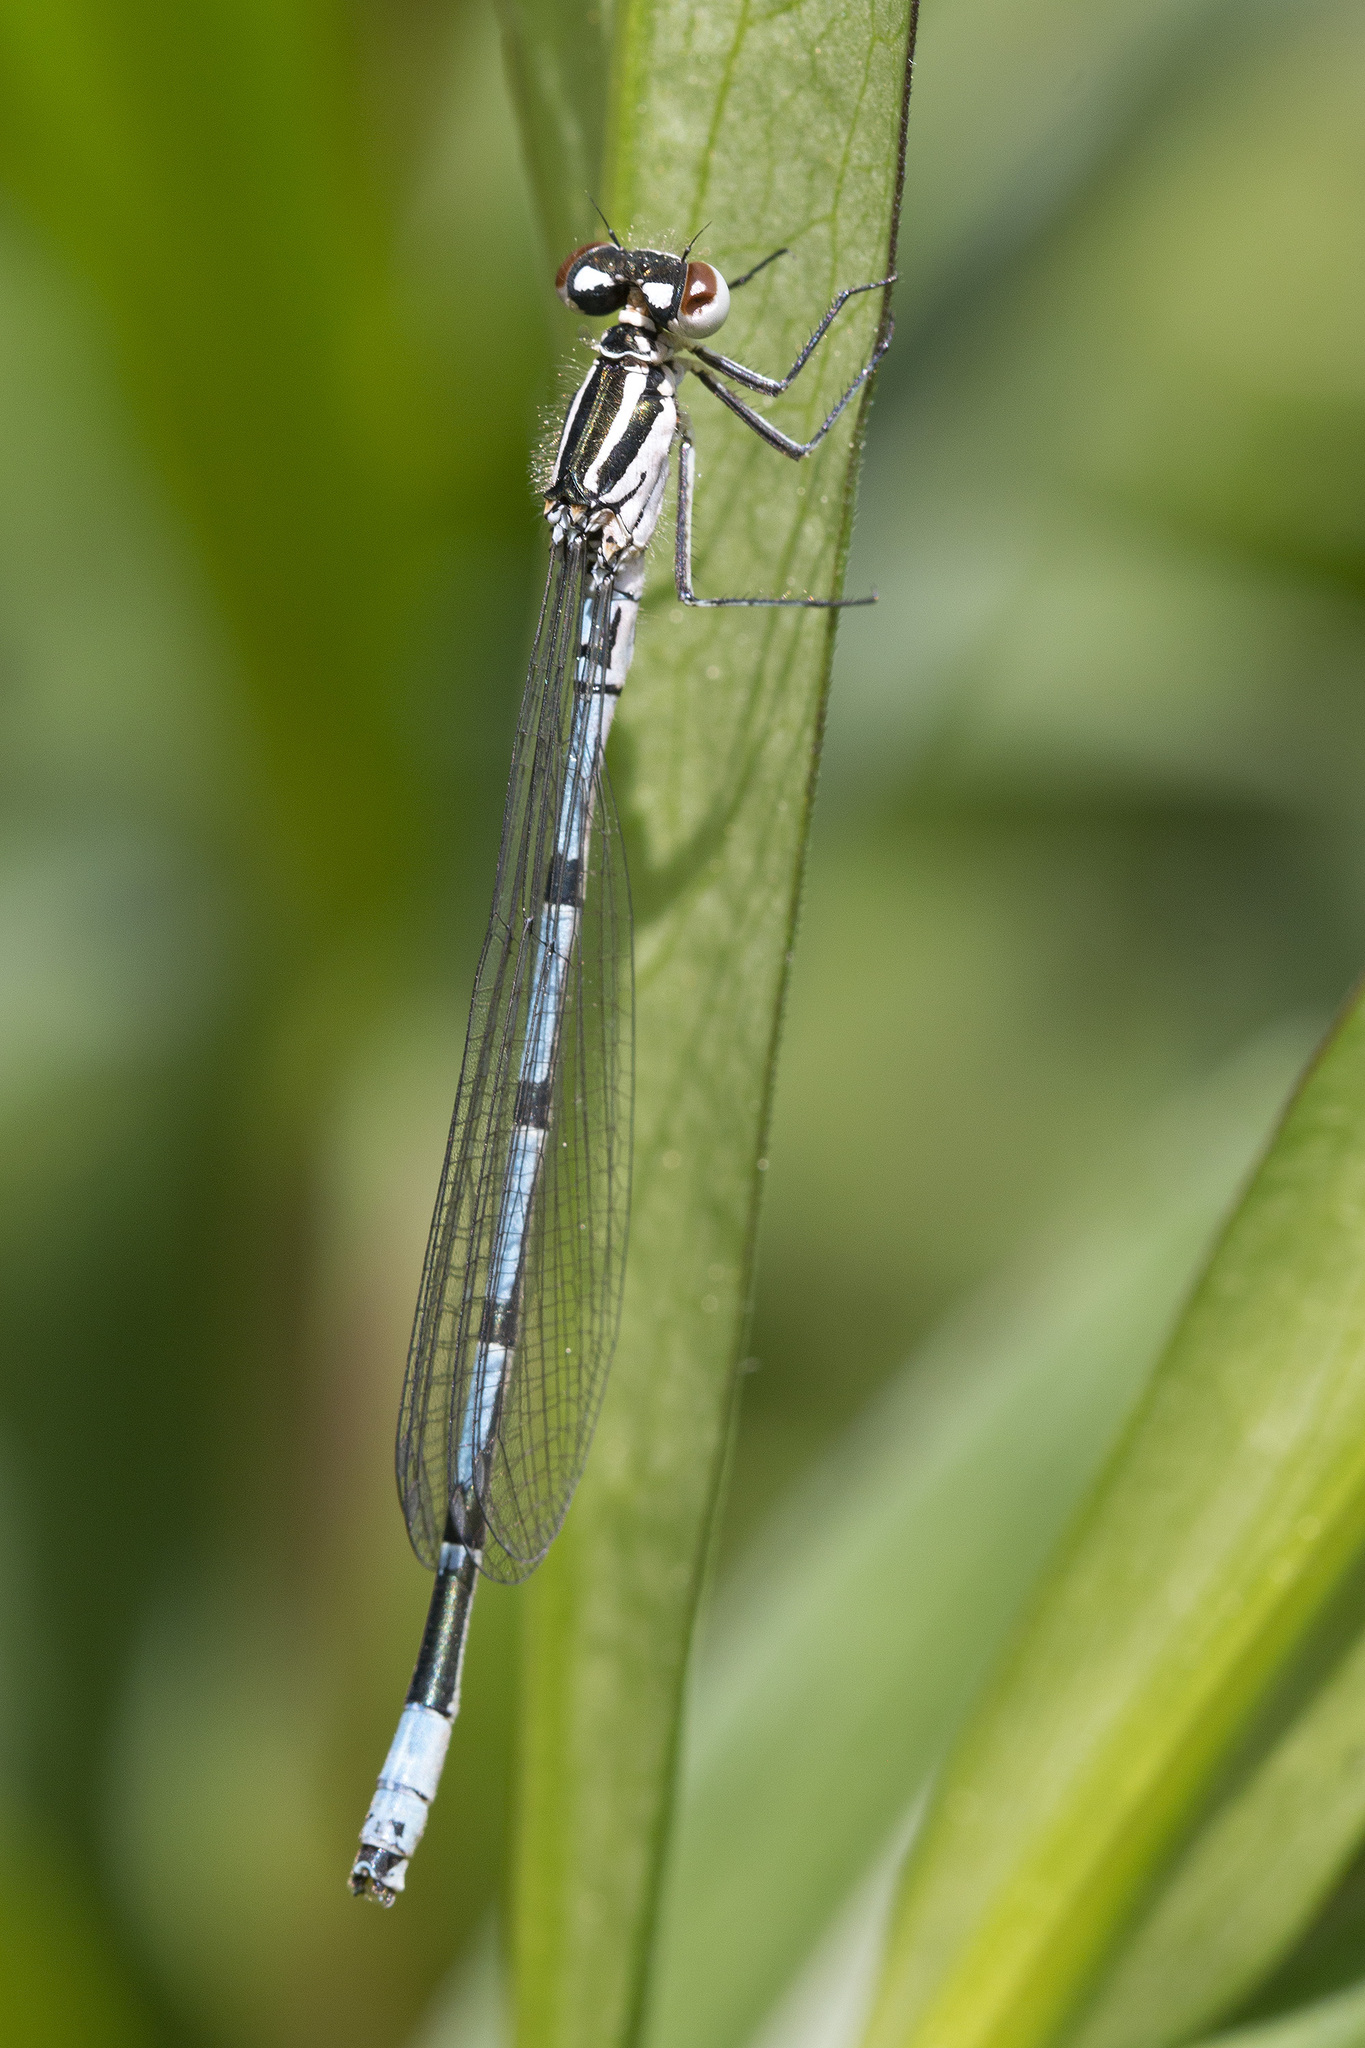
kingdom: Animalia
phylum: Arthropoda
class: Insecta
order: Odonata
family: Coenagrionidae
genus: Coenagrion
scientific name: Coenagrion puella
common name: Azure damselfly
